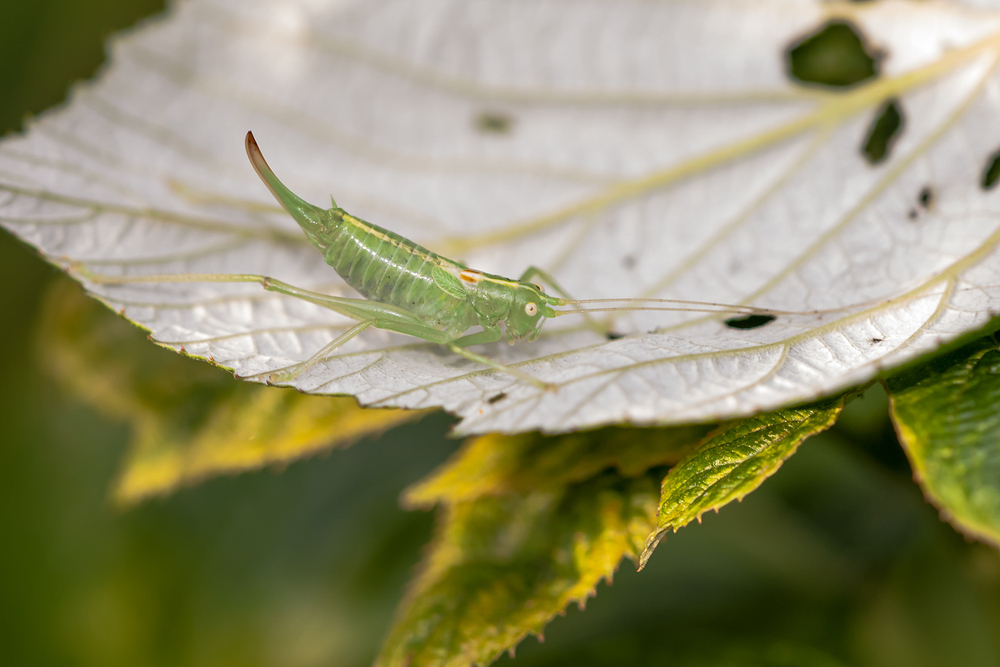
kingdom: Animalia
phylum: Arthropoda
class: Insecta
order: Orthoptera
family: Tettigoniidae
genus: Meconema
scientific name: Meconema meridionale
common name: Southern oak bush-cricket
